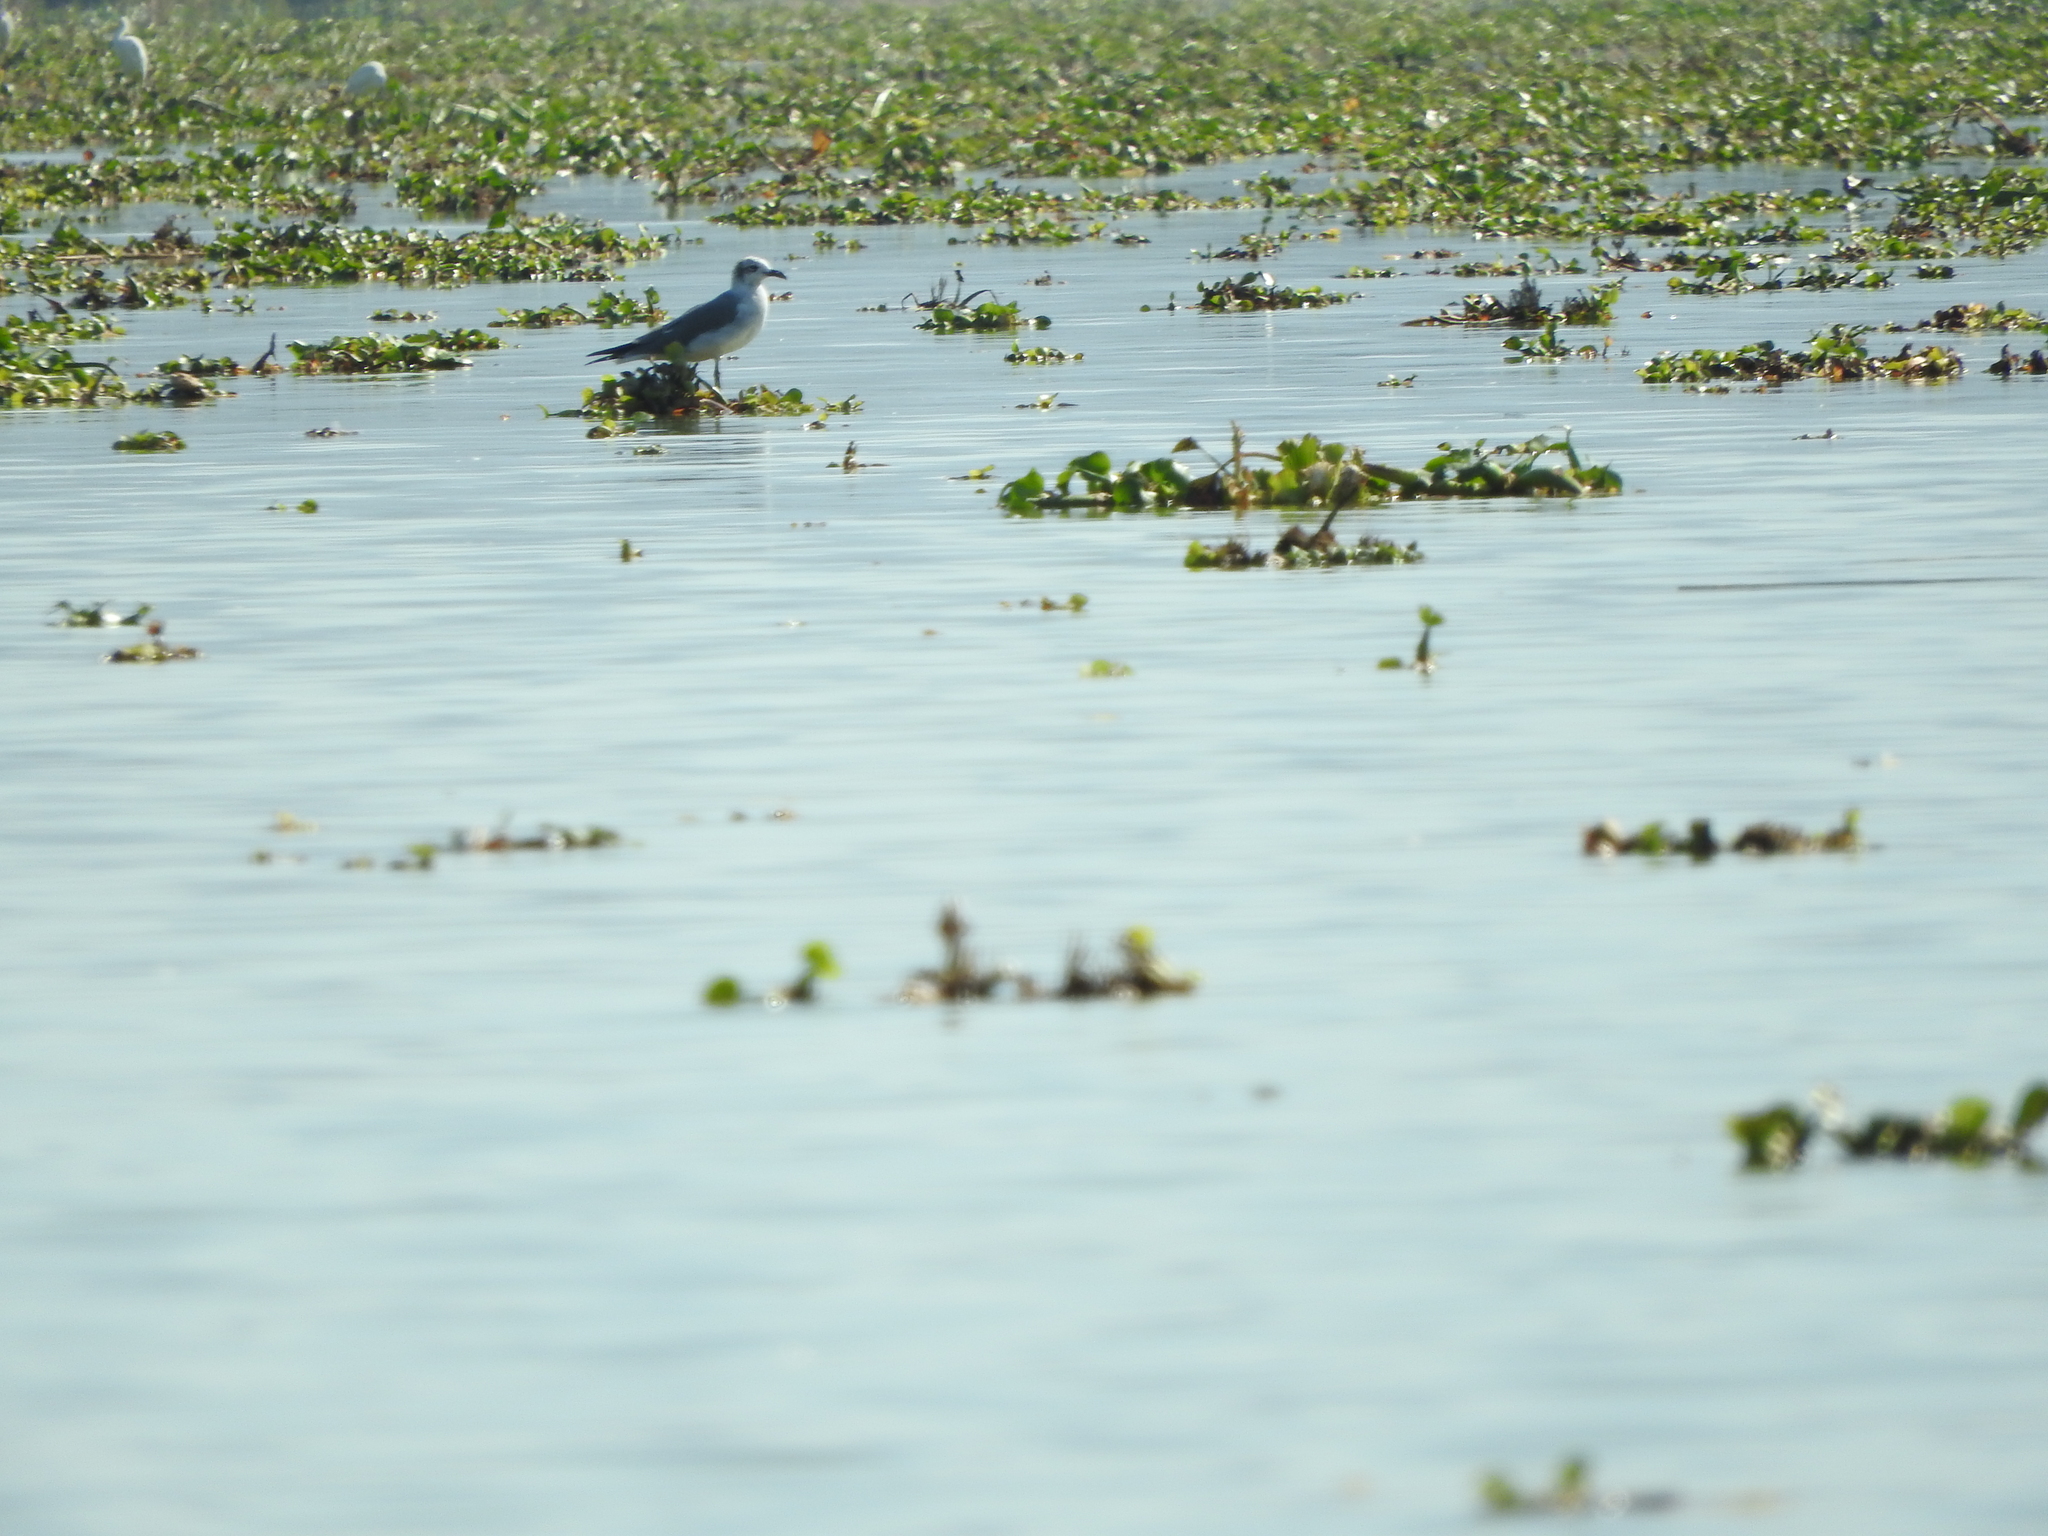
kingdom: Animalia
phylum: Chordata
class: Aves
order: Charadriiformes
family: Laridae
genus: Leucophaeus
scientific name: Leucophaeus atricilla
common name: Laughing gull
